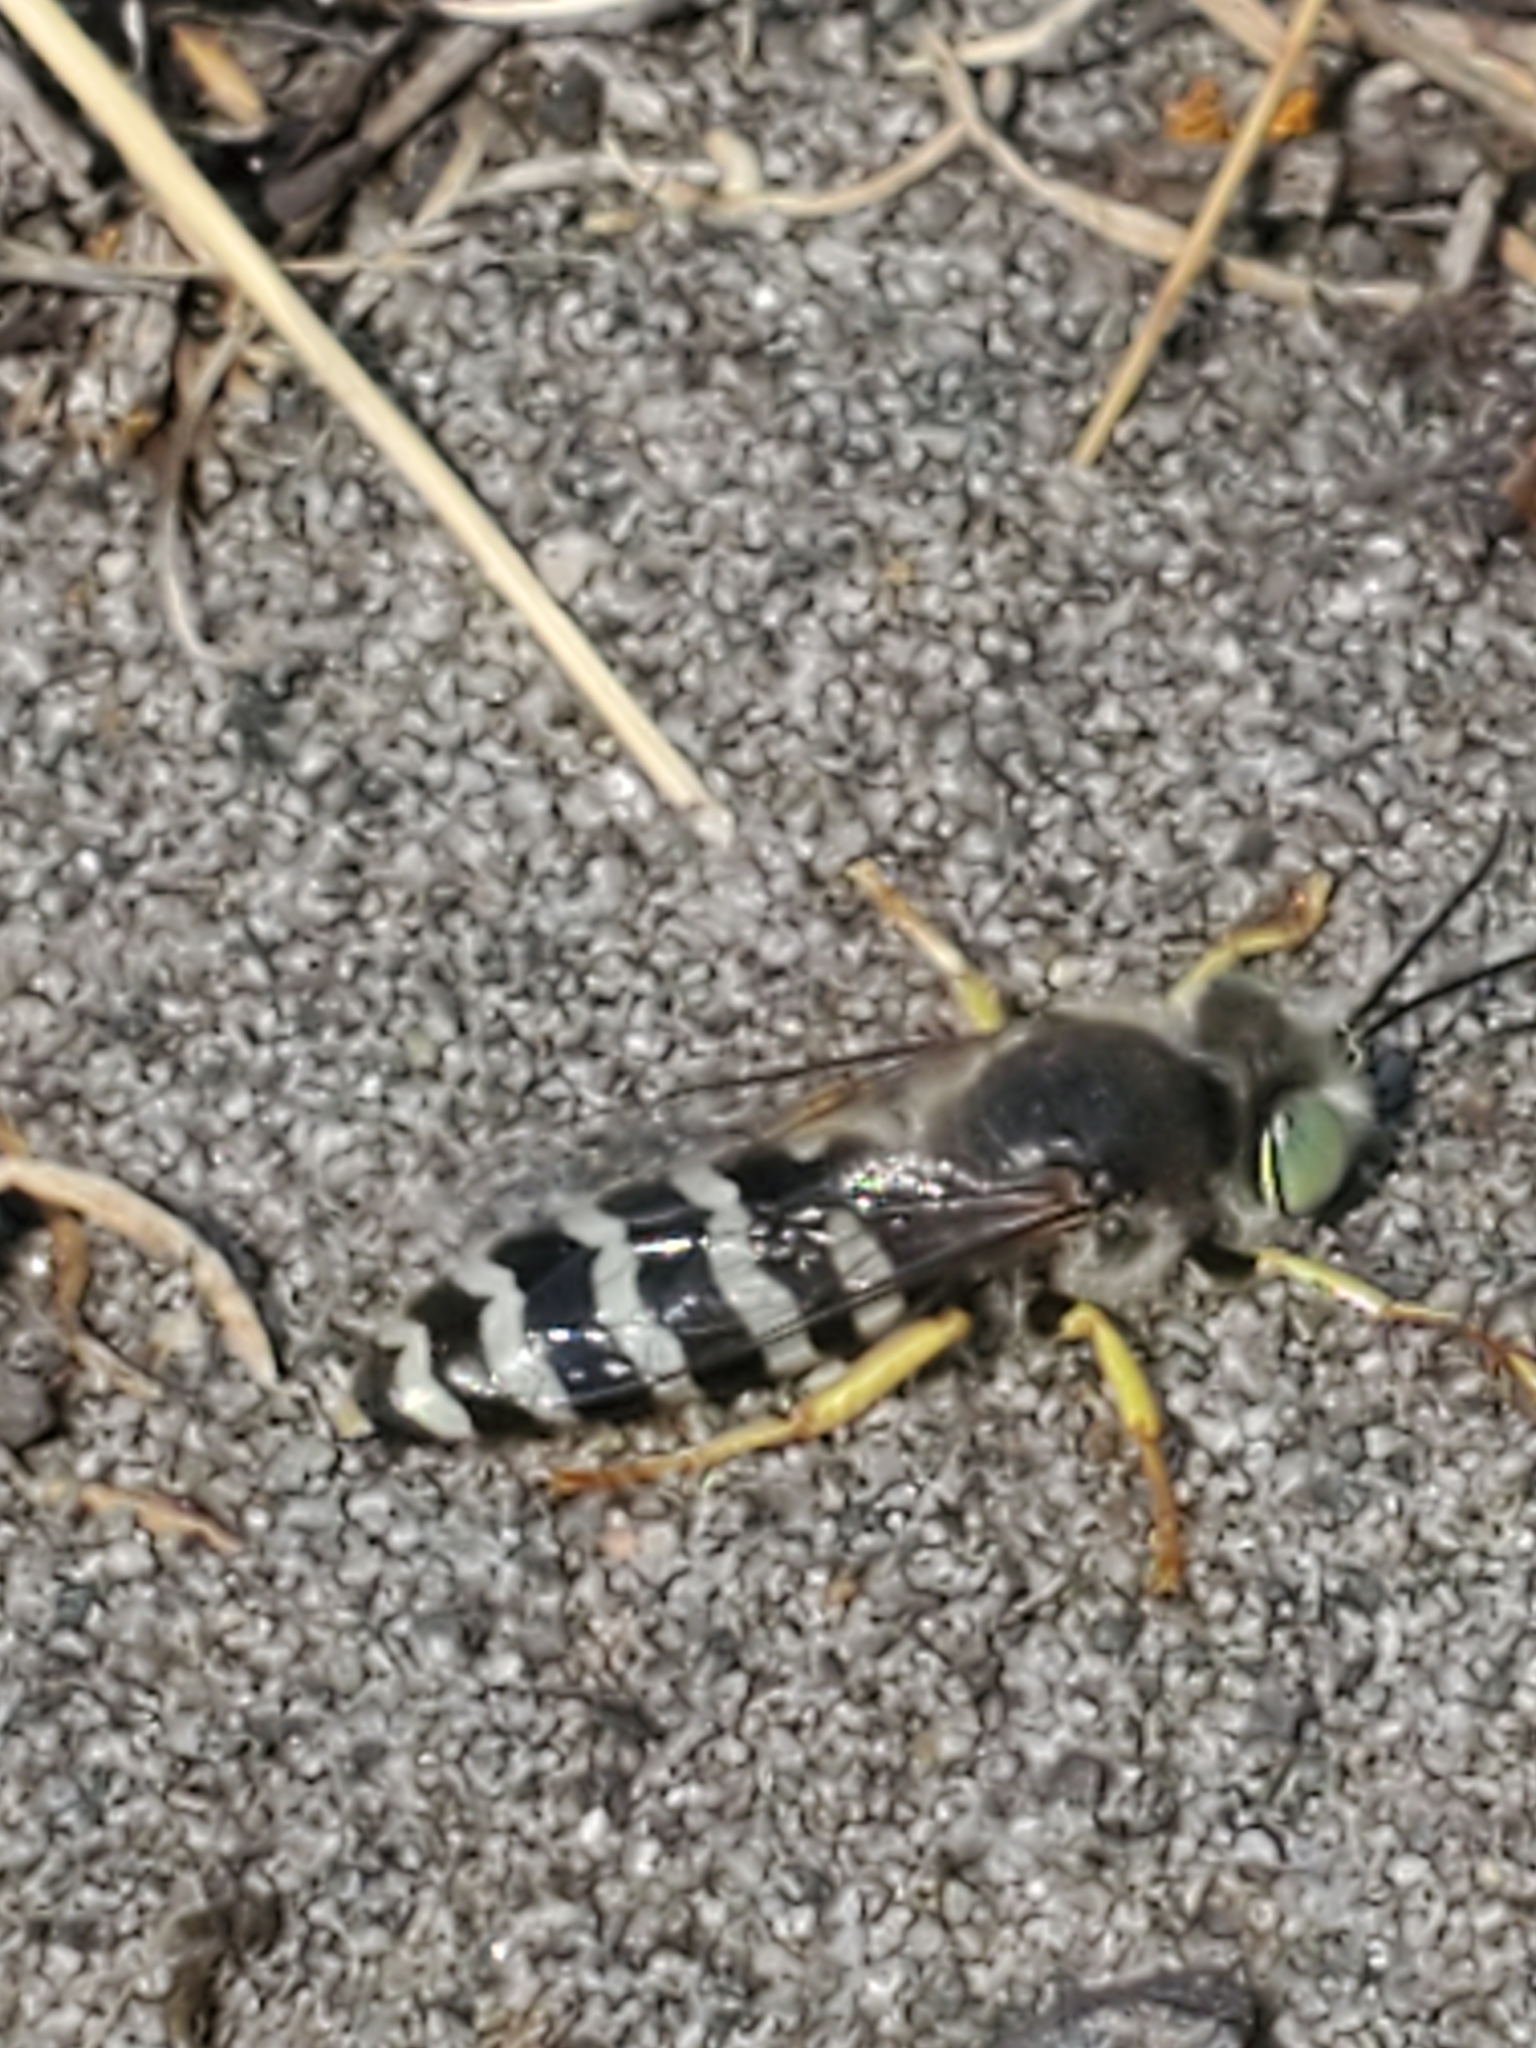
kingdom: Animalia
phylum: Arthropoda
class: Insecta
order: Hymenoptera
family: Crabronidae
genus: Bembix
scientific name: Bembix americana
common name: American sand wasp
